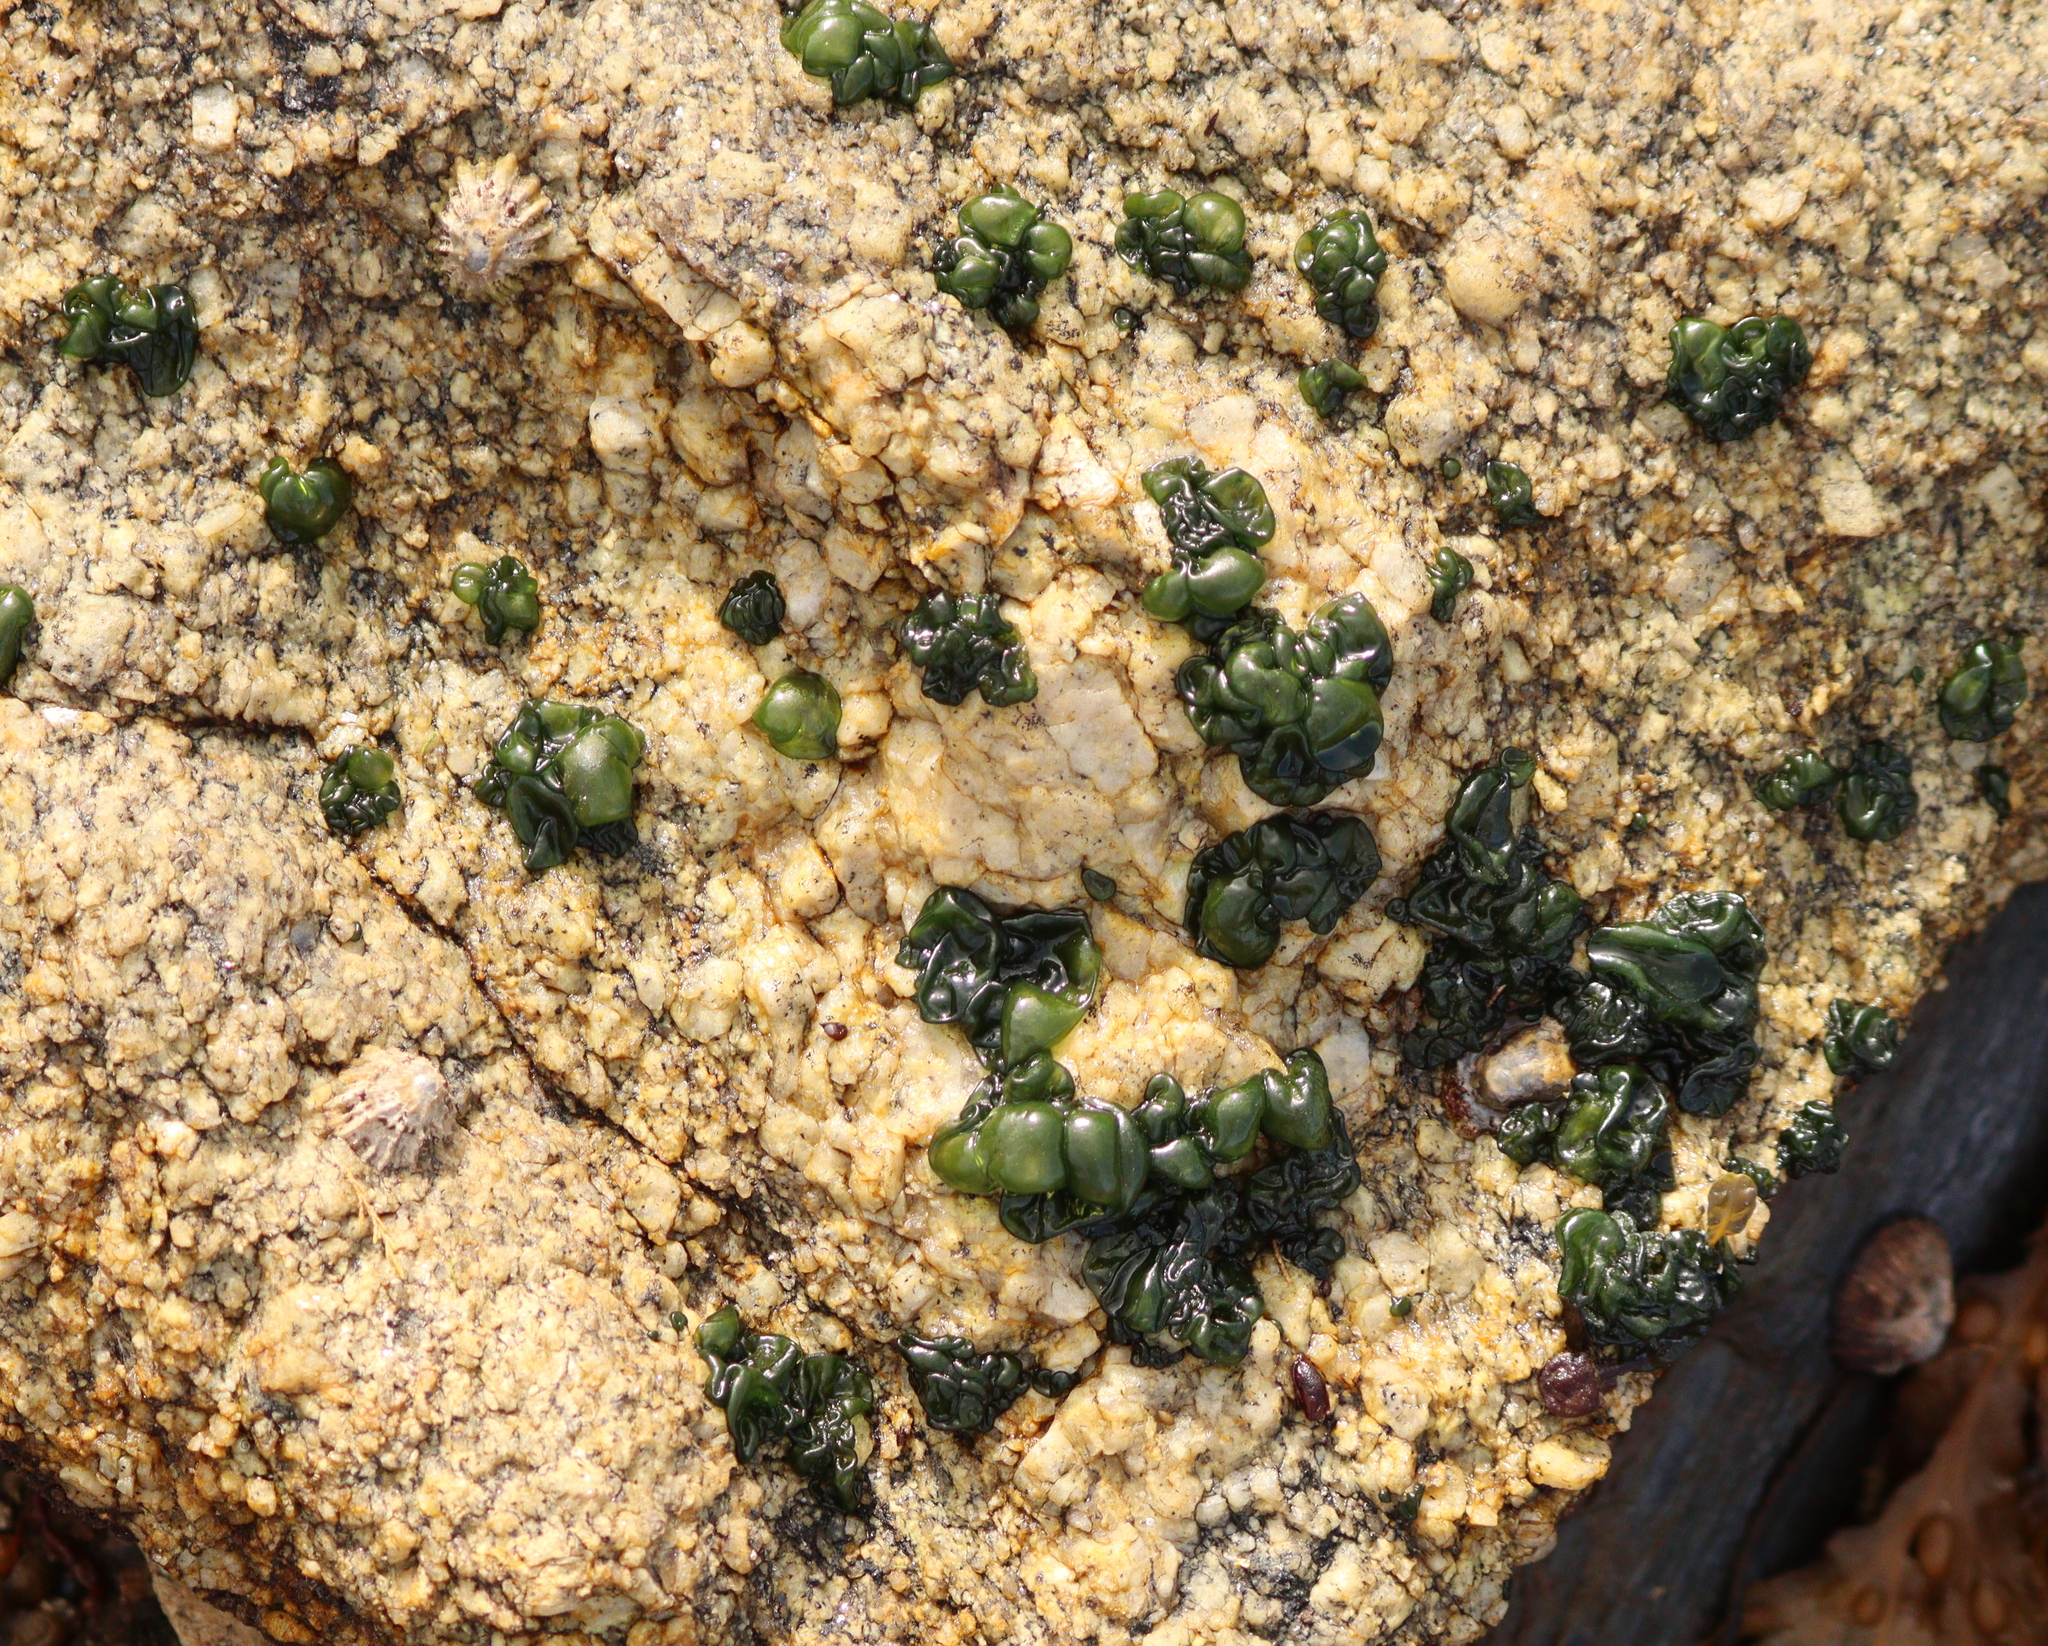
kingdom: Bacteria
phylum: Cyanobacteria
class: Cyanobacteriia
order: Cyanobacteriales
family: Nostocaceae
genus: Rivularia
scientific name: Rivularia bullata
